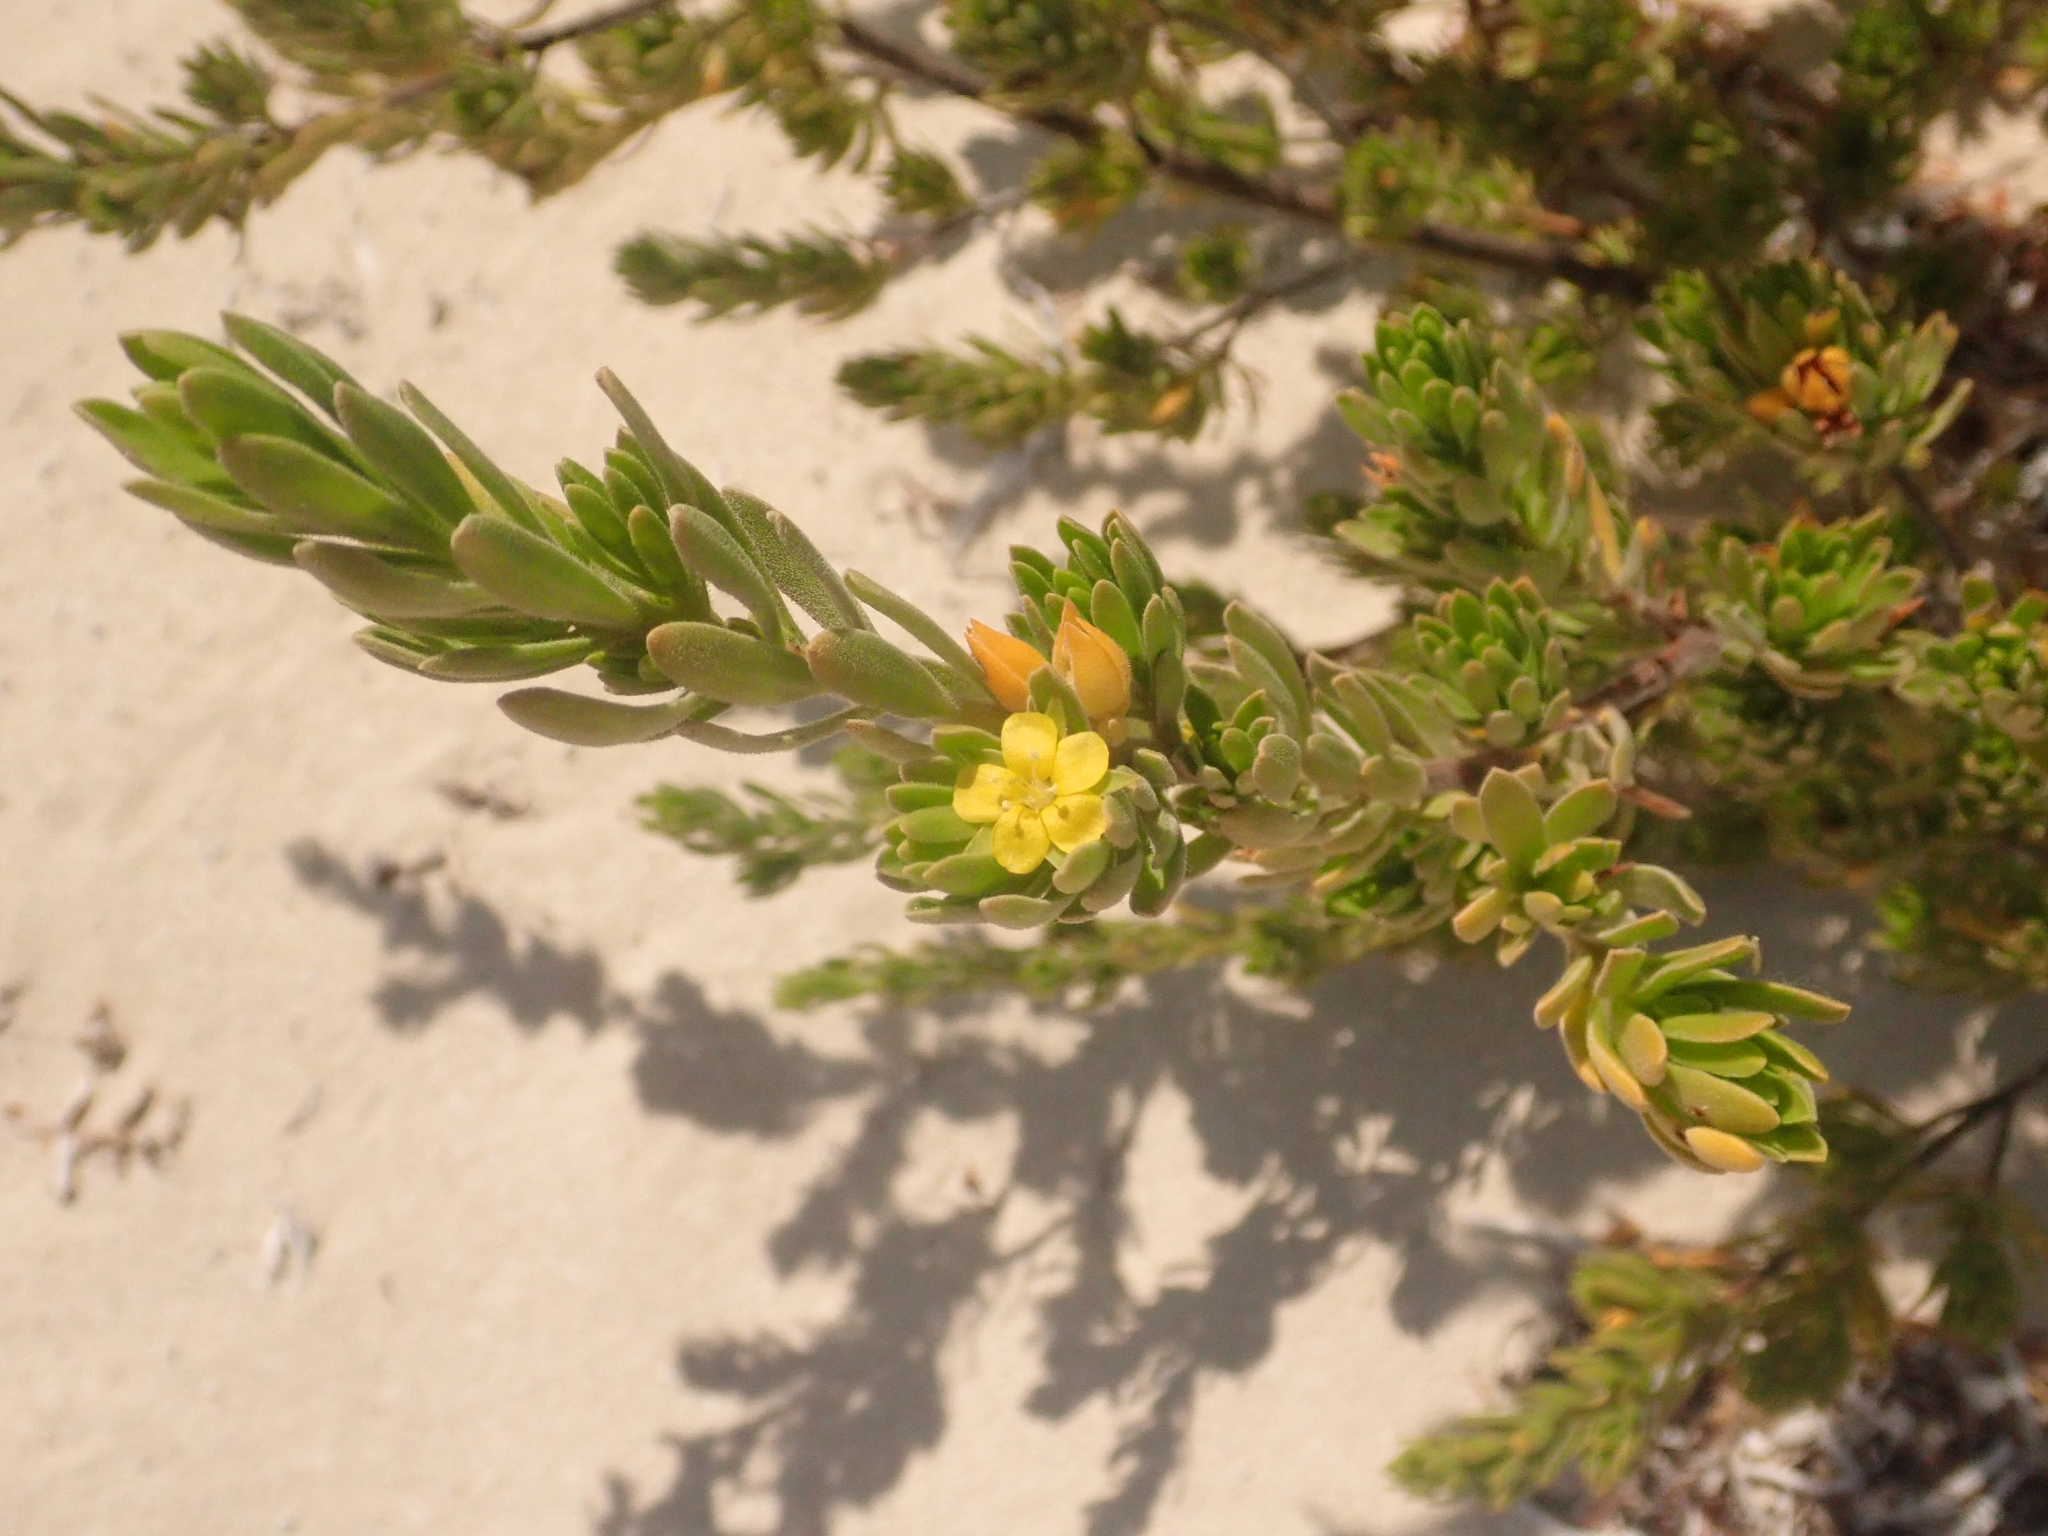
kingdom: Plantae
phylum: Tracheophyta
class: Magnoliopsida
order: Fabales
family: Surianaceae
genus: Suriana
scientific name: Suriana maritima
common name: Bay-cedar
